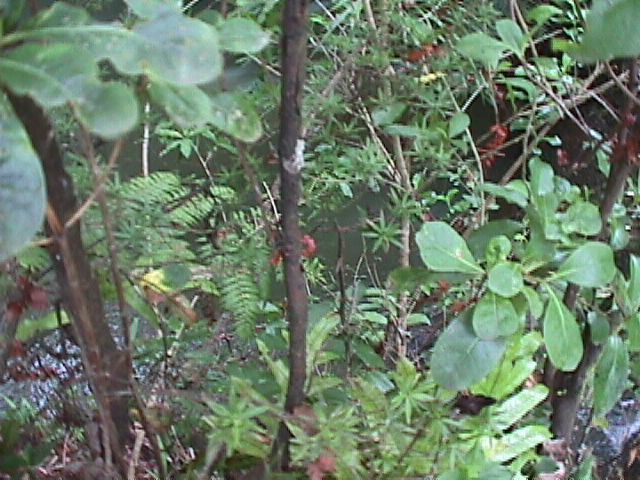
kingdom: Plantae
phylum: Tracheophyta
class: Magnoliopsida
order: Ericales
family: Ericaceae
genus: Leptecophylla
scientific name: Leptecophylla juniperina
